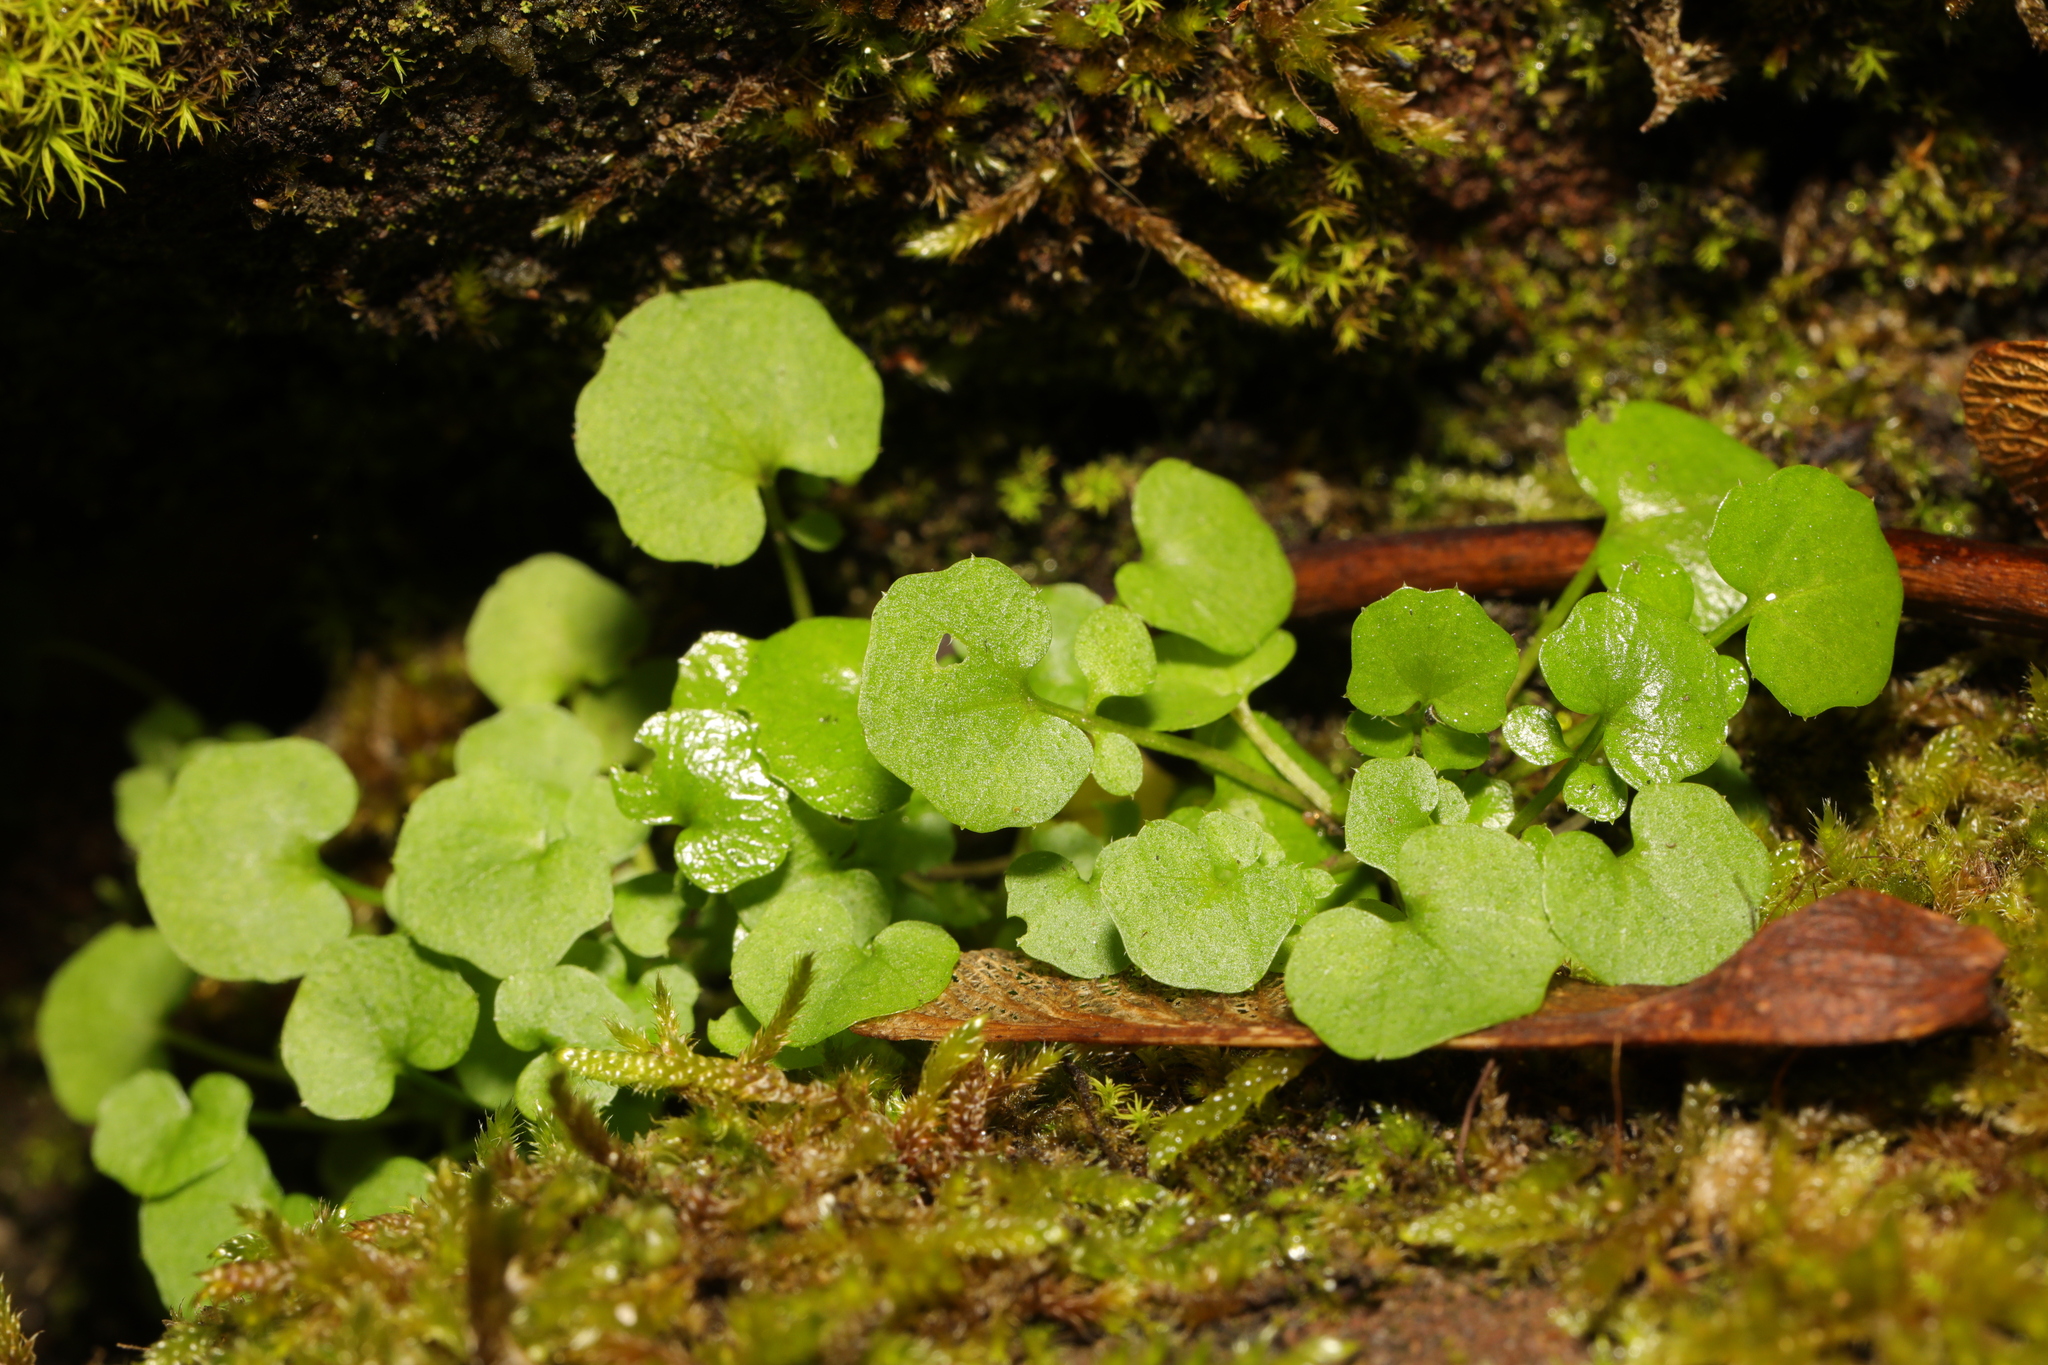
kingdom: Plantae
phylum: Tracheophyta
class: Magnoliopsida
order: Brassicales
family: Brassicaceae
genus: Cardamine
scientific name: Cardamine hirsuta
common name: Hairy bittercress
